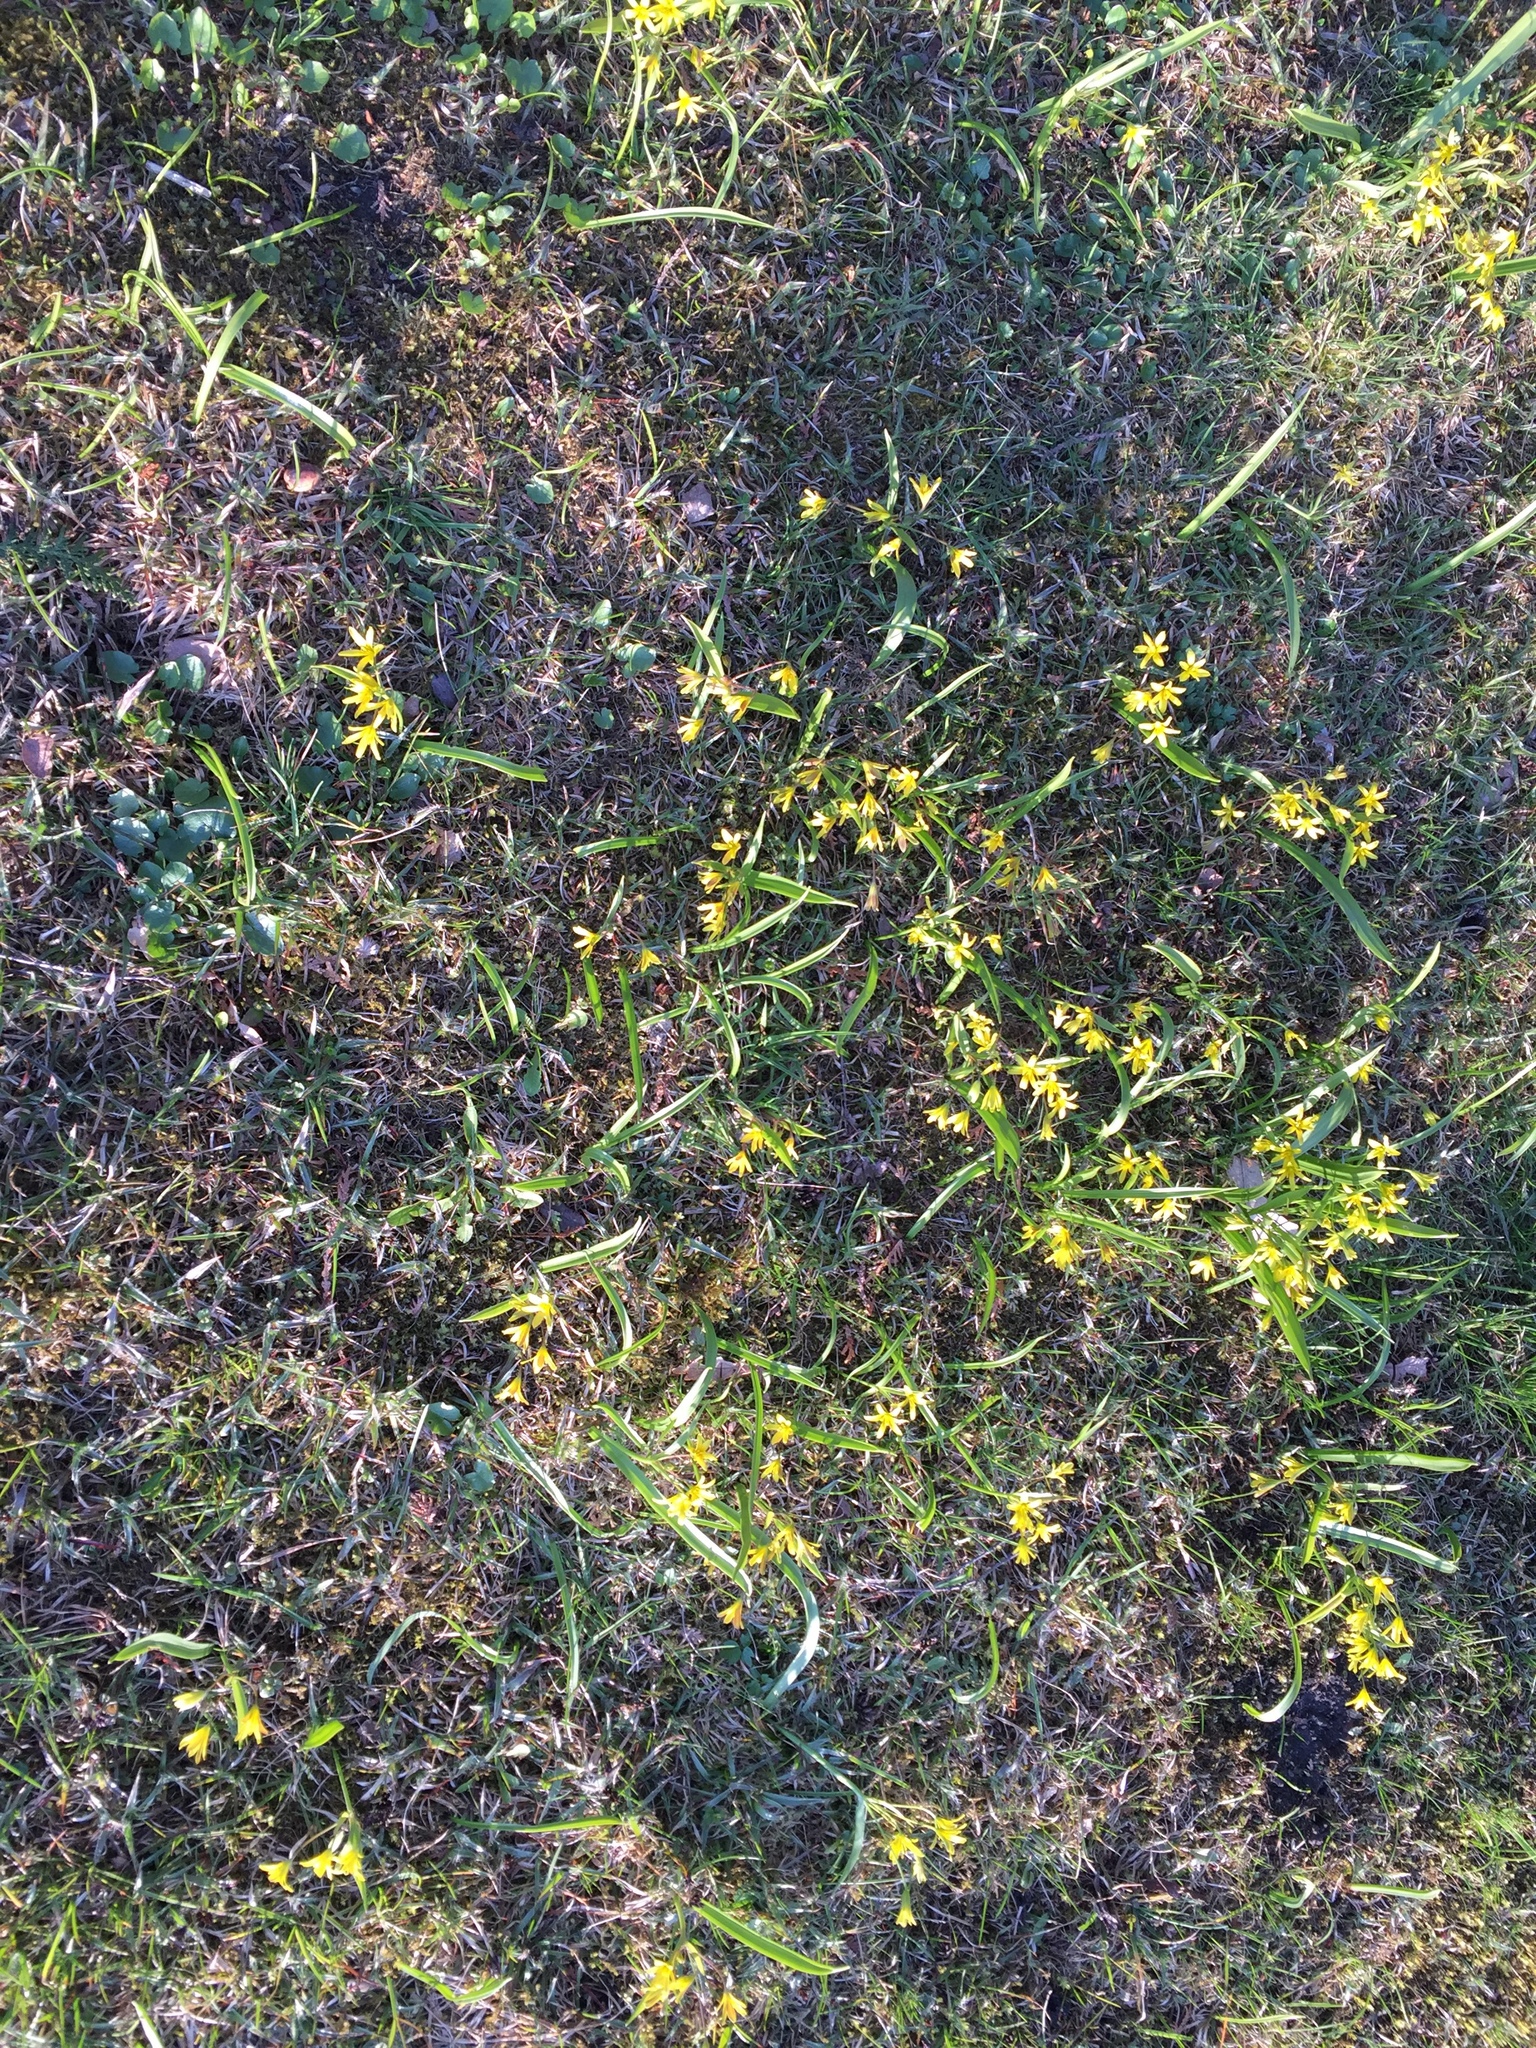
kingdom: Plantae
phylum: Tracheophyta
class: Liliopsida
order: Liliales
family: Liliaceae
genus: Gagea
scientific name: Gagea lutea
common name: Yellow star-of-bethlehem
